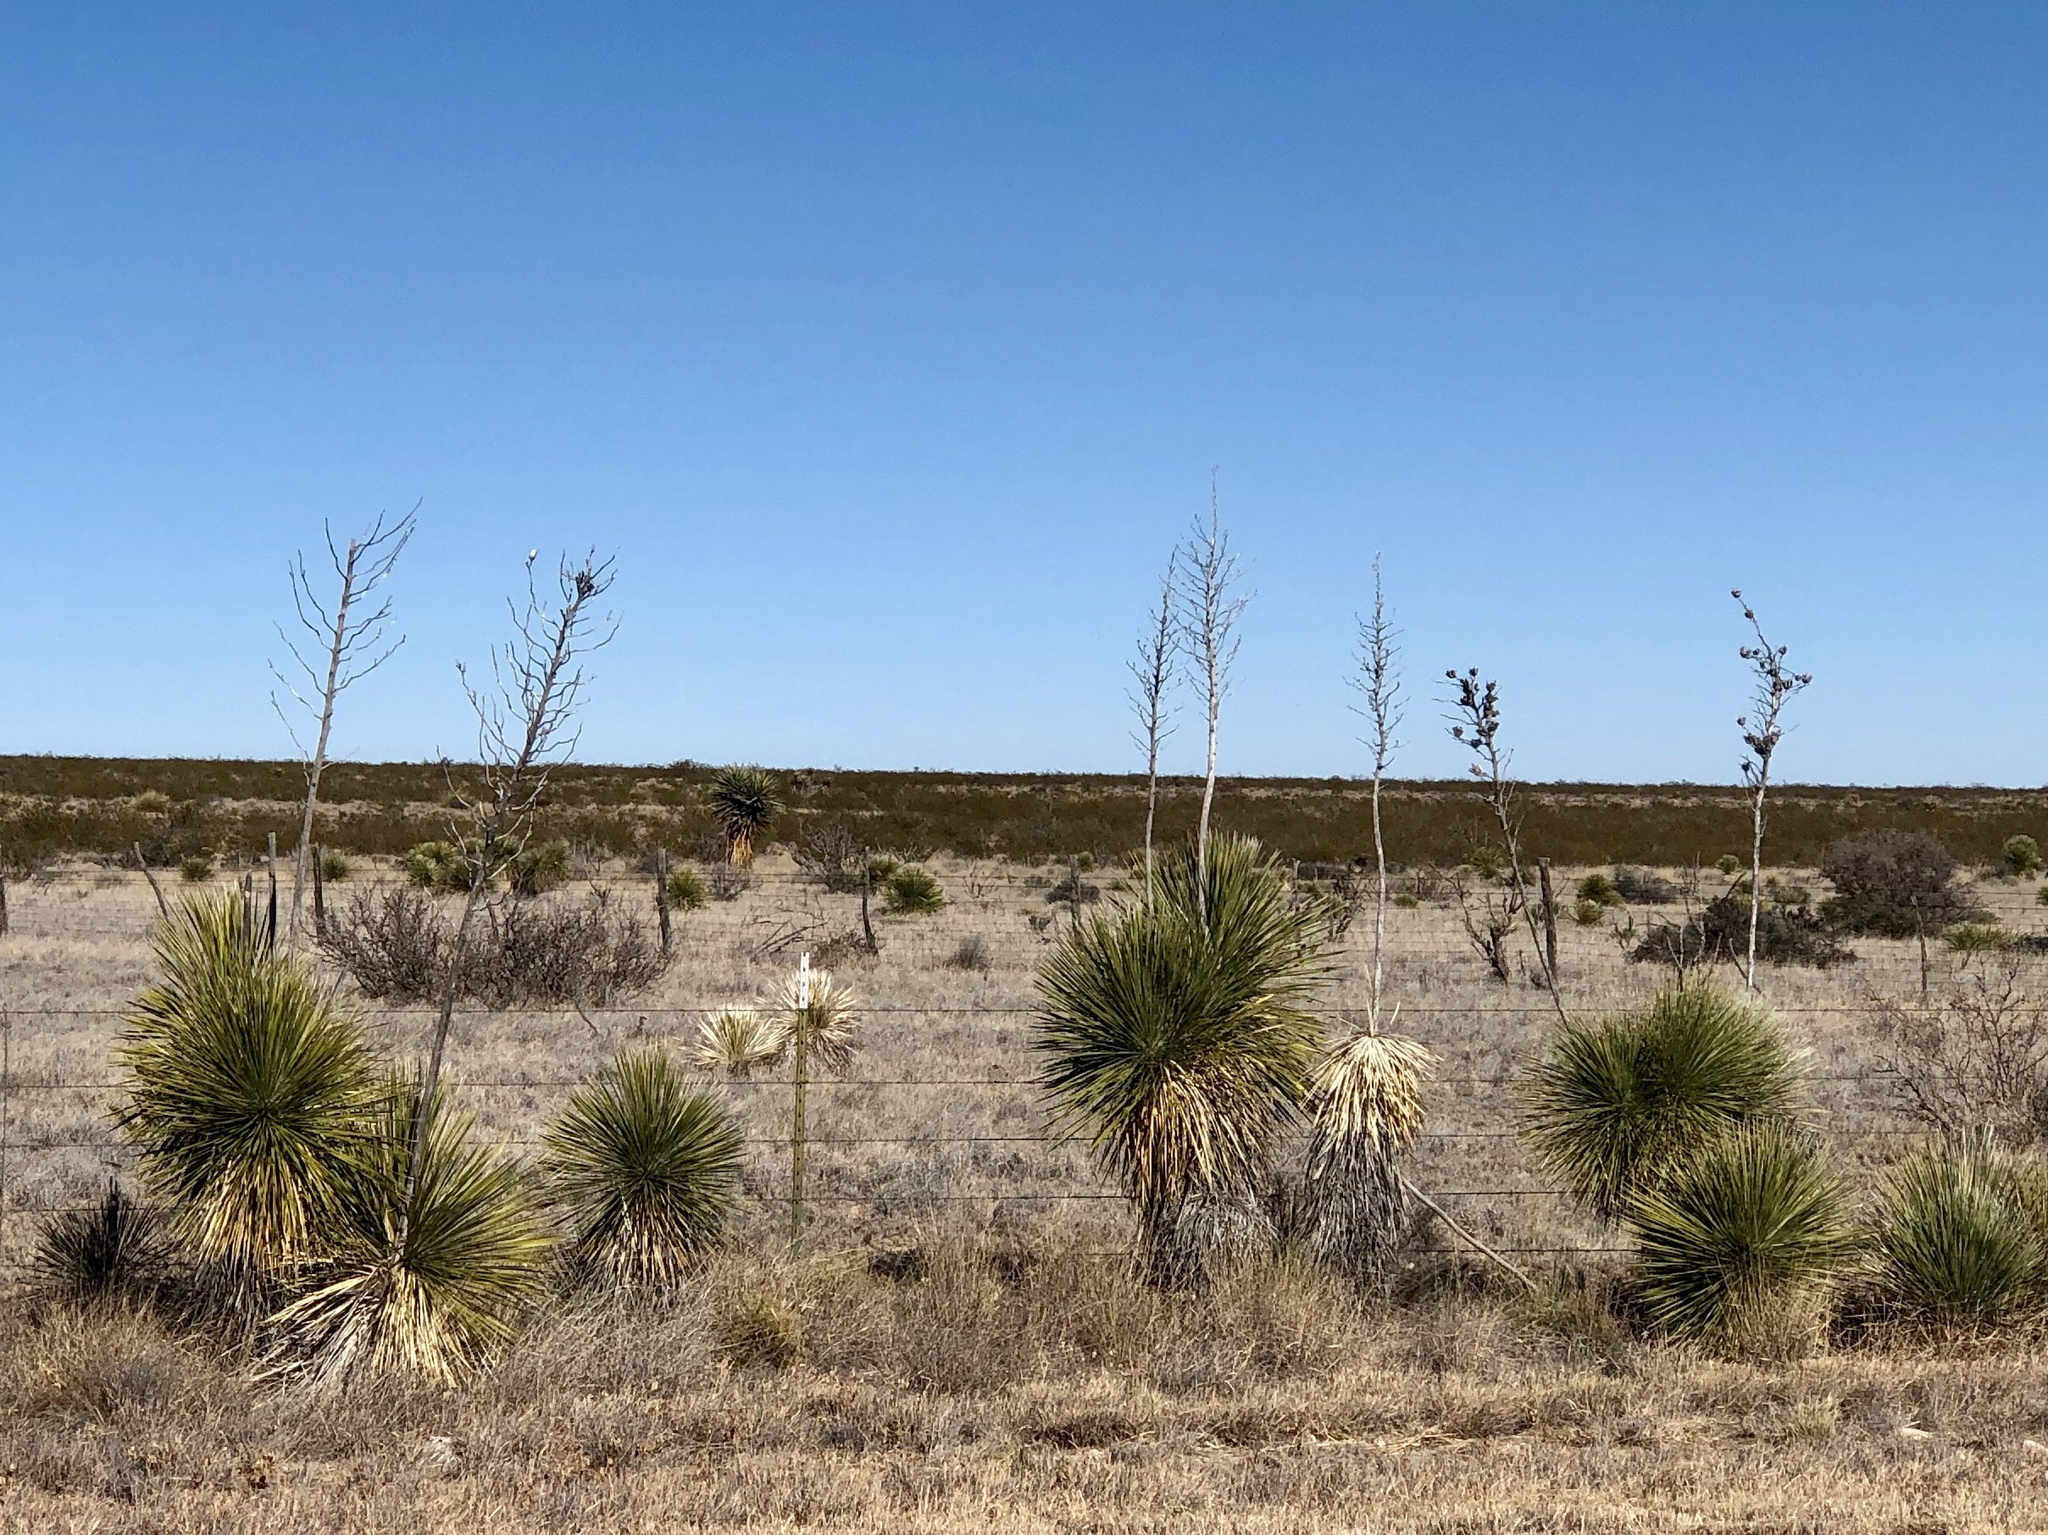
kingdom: Plantae
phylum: Tracheophyta
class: Liliopsida
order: Asparagales
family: Asparagaceae
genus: Yucca
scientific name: Yucca elata
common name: Palmella
